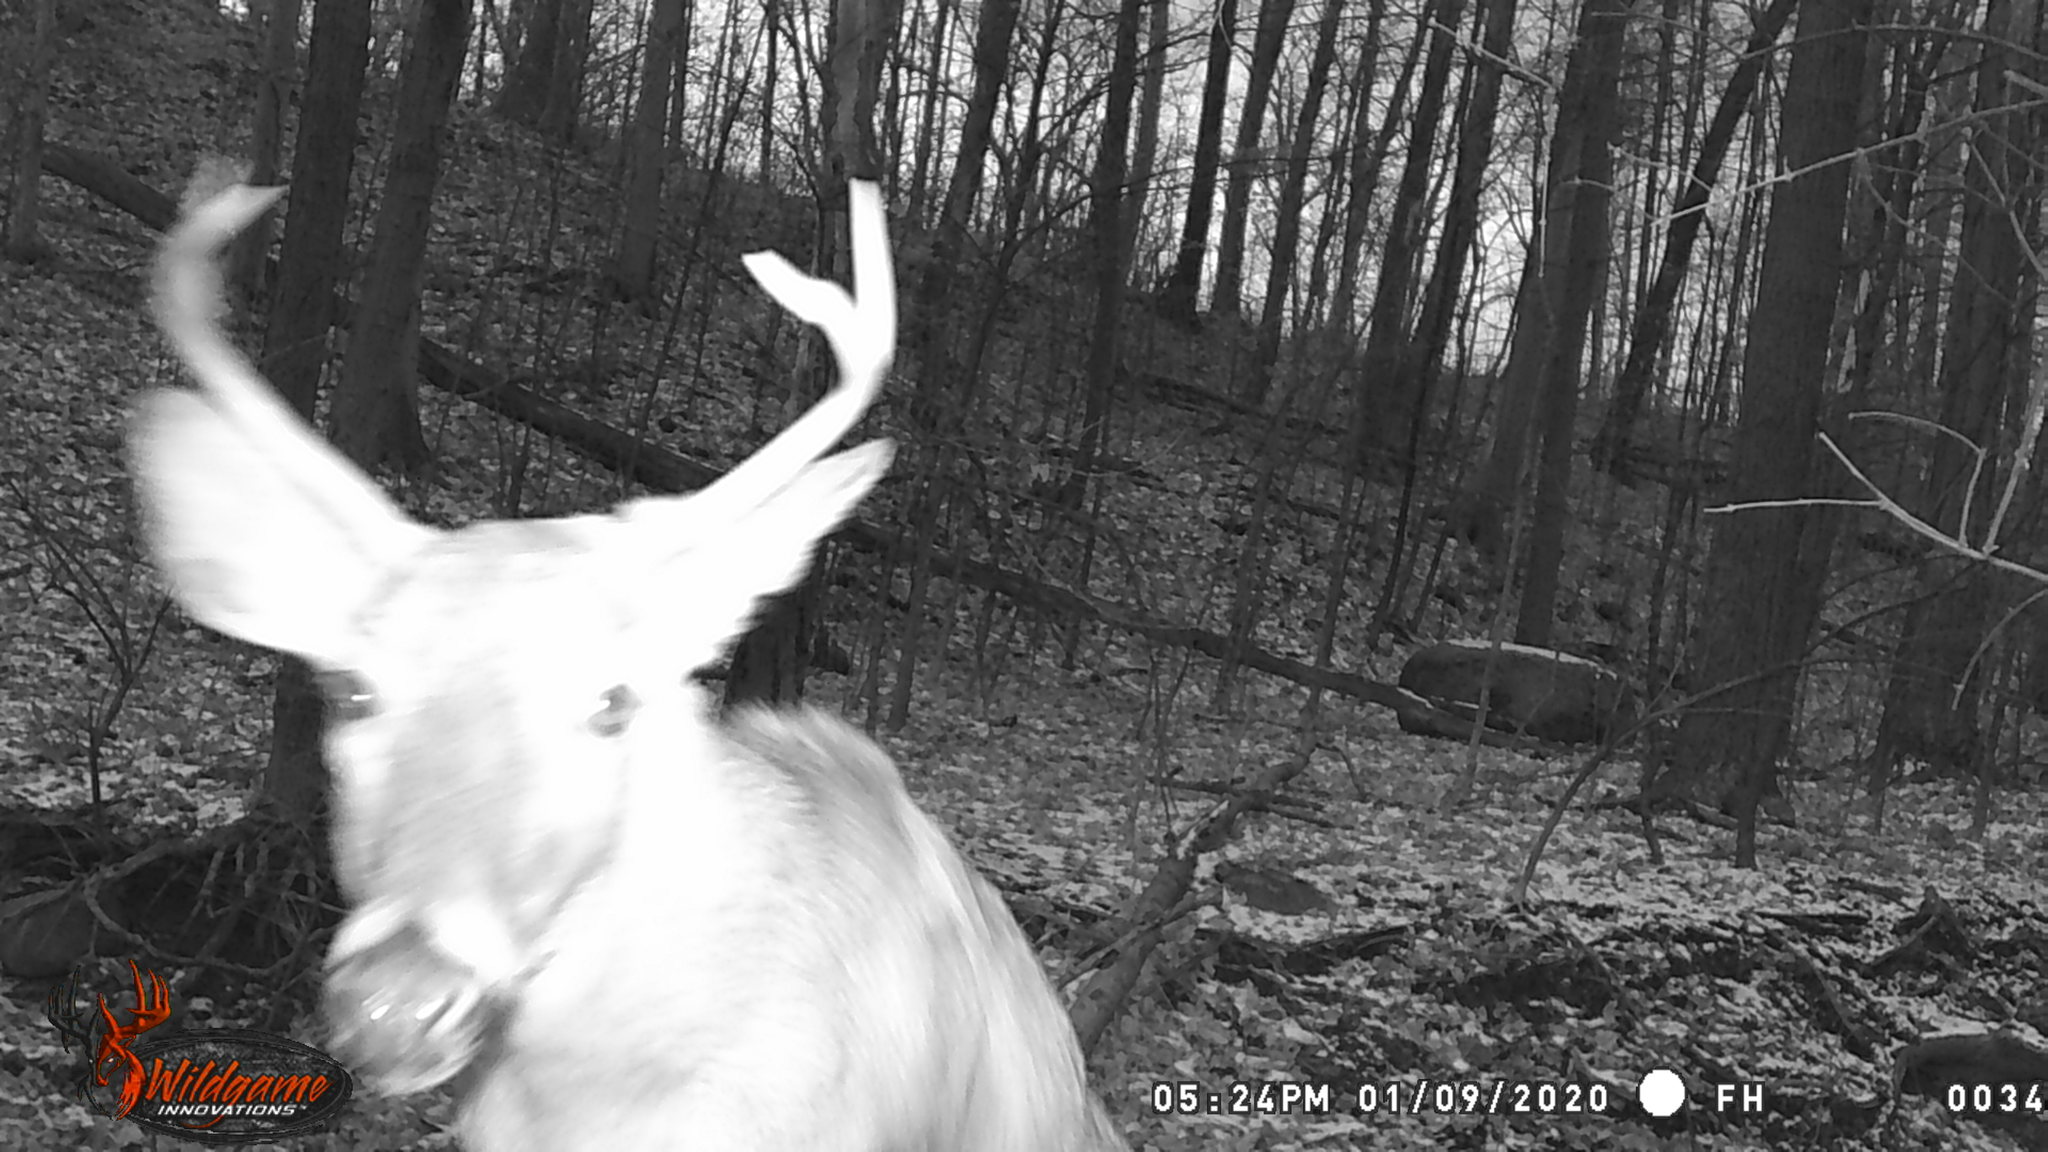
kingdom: Animalia
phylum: Chordata
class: Mammalia
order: Artiodactyla
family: Cervidae
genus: Odocoileus
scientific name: Odocoileus virginianus
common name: White-tailed deer
